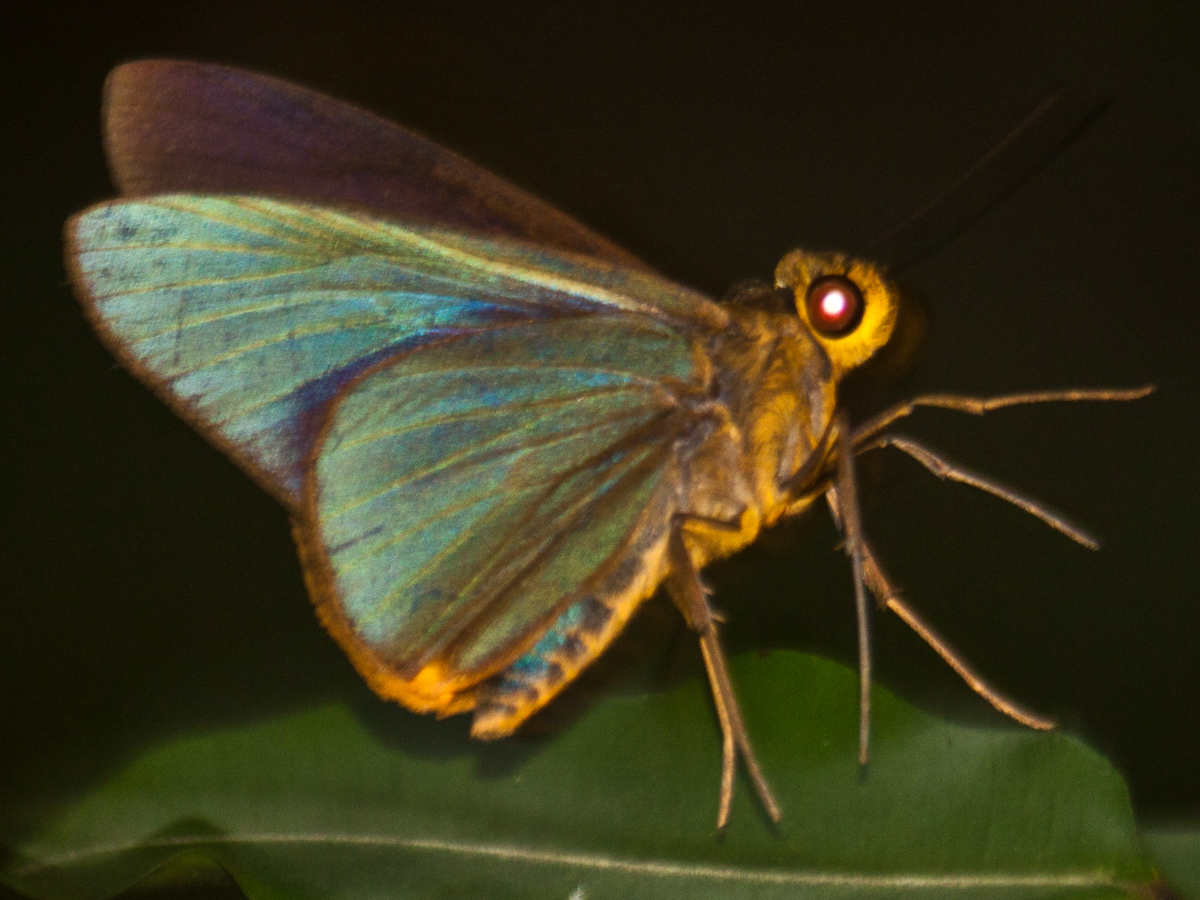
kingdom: Animalia
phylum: Arthropoda
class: Insecta
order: Lepidoptera
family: Hesperiidae
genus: Pirdana
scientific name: Pirdana distanti
